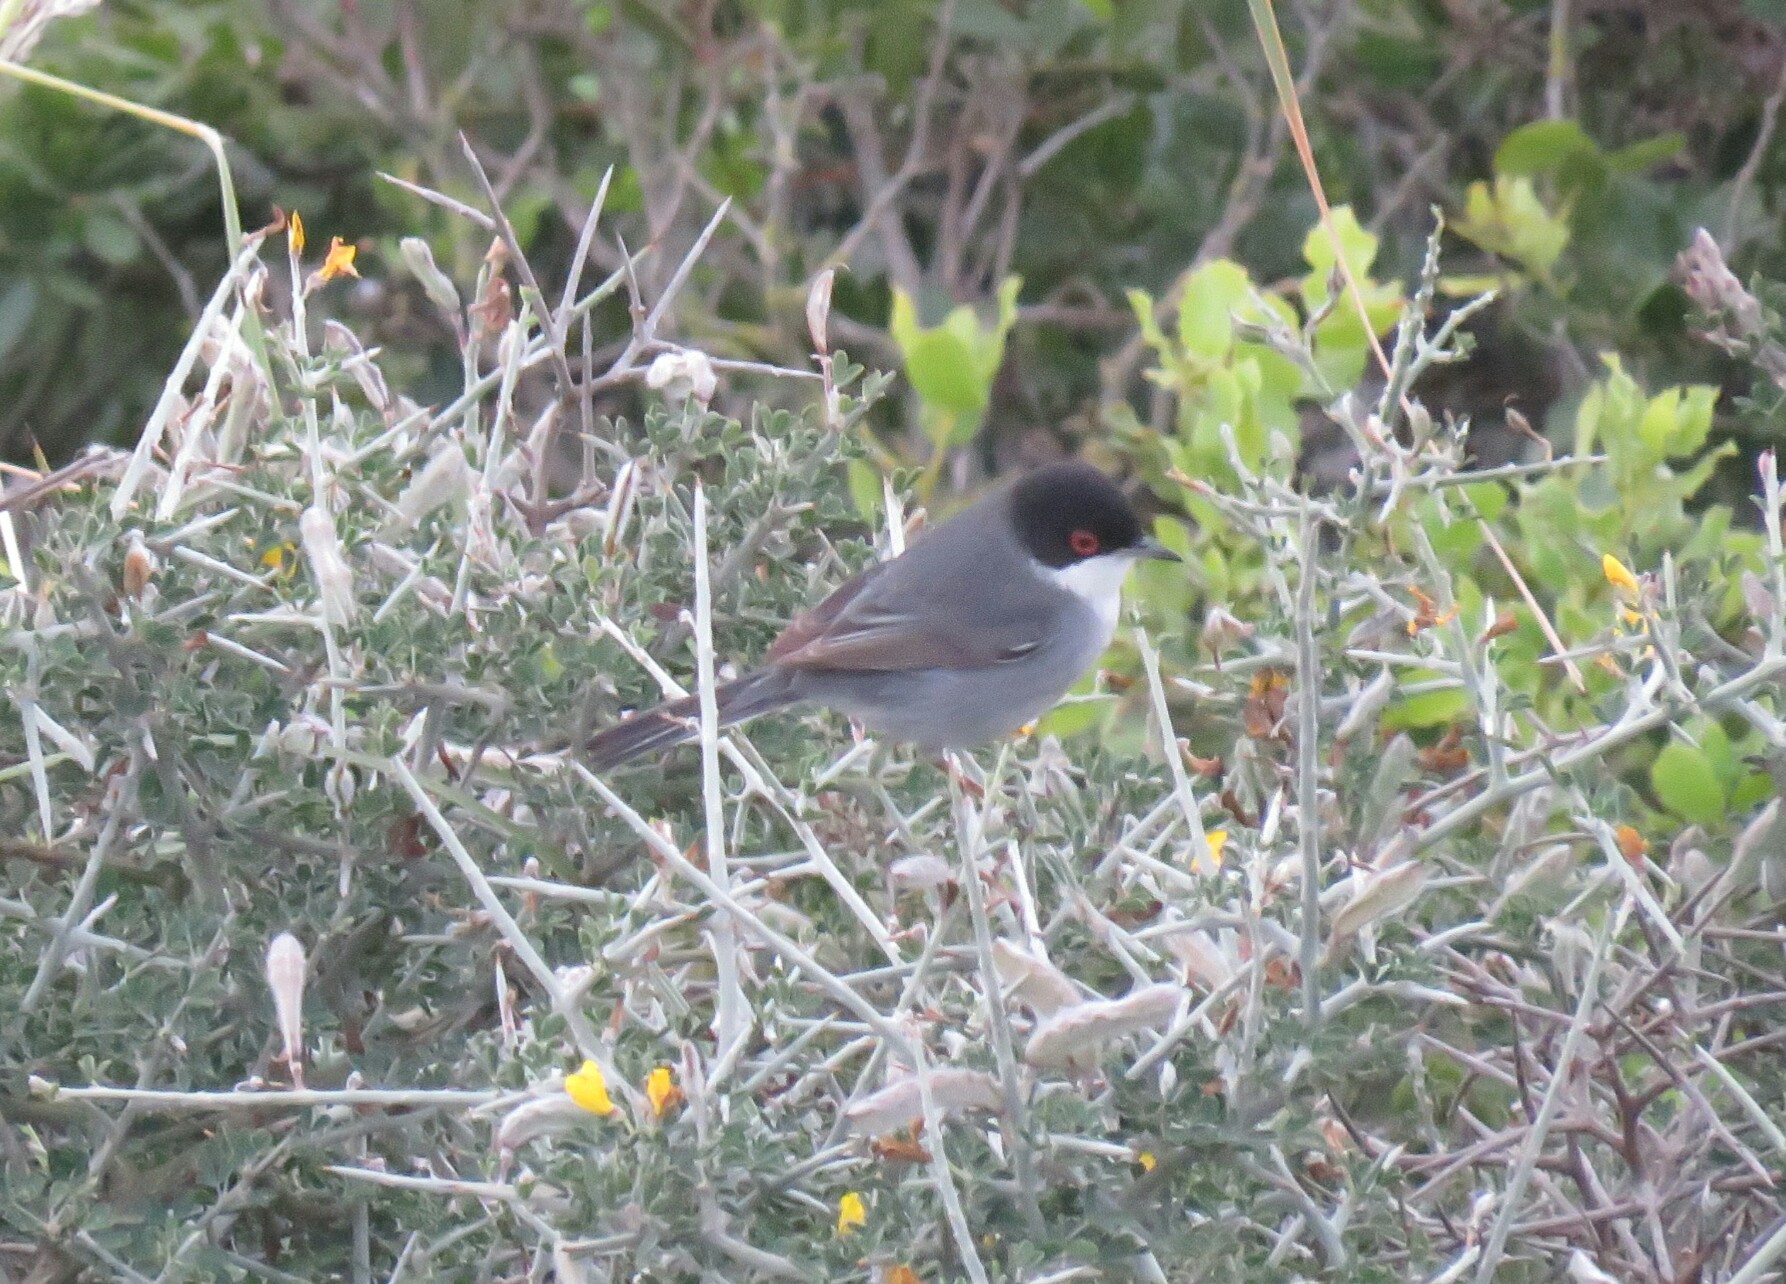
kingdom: Animalia
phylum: Chordata
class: Aves
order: Passeriformes
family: Sylviidae
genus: Curruca
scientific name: Curruca melanocephala
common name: Sardinian warbler
